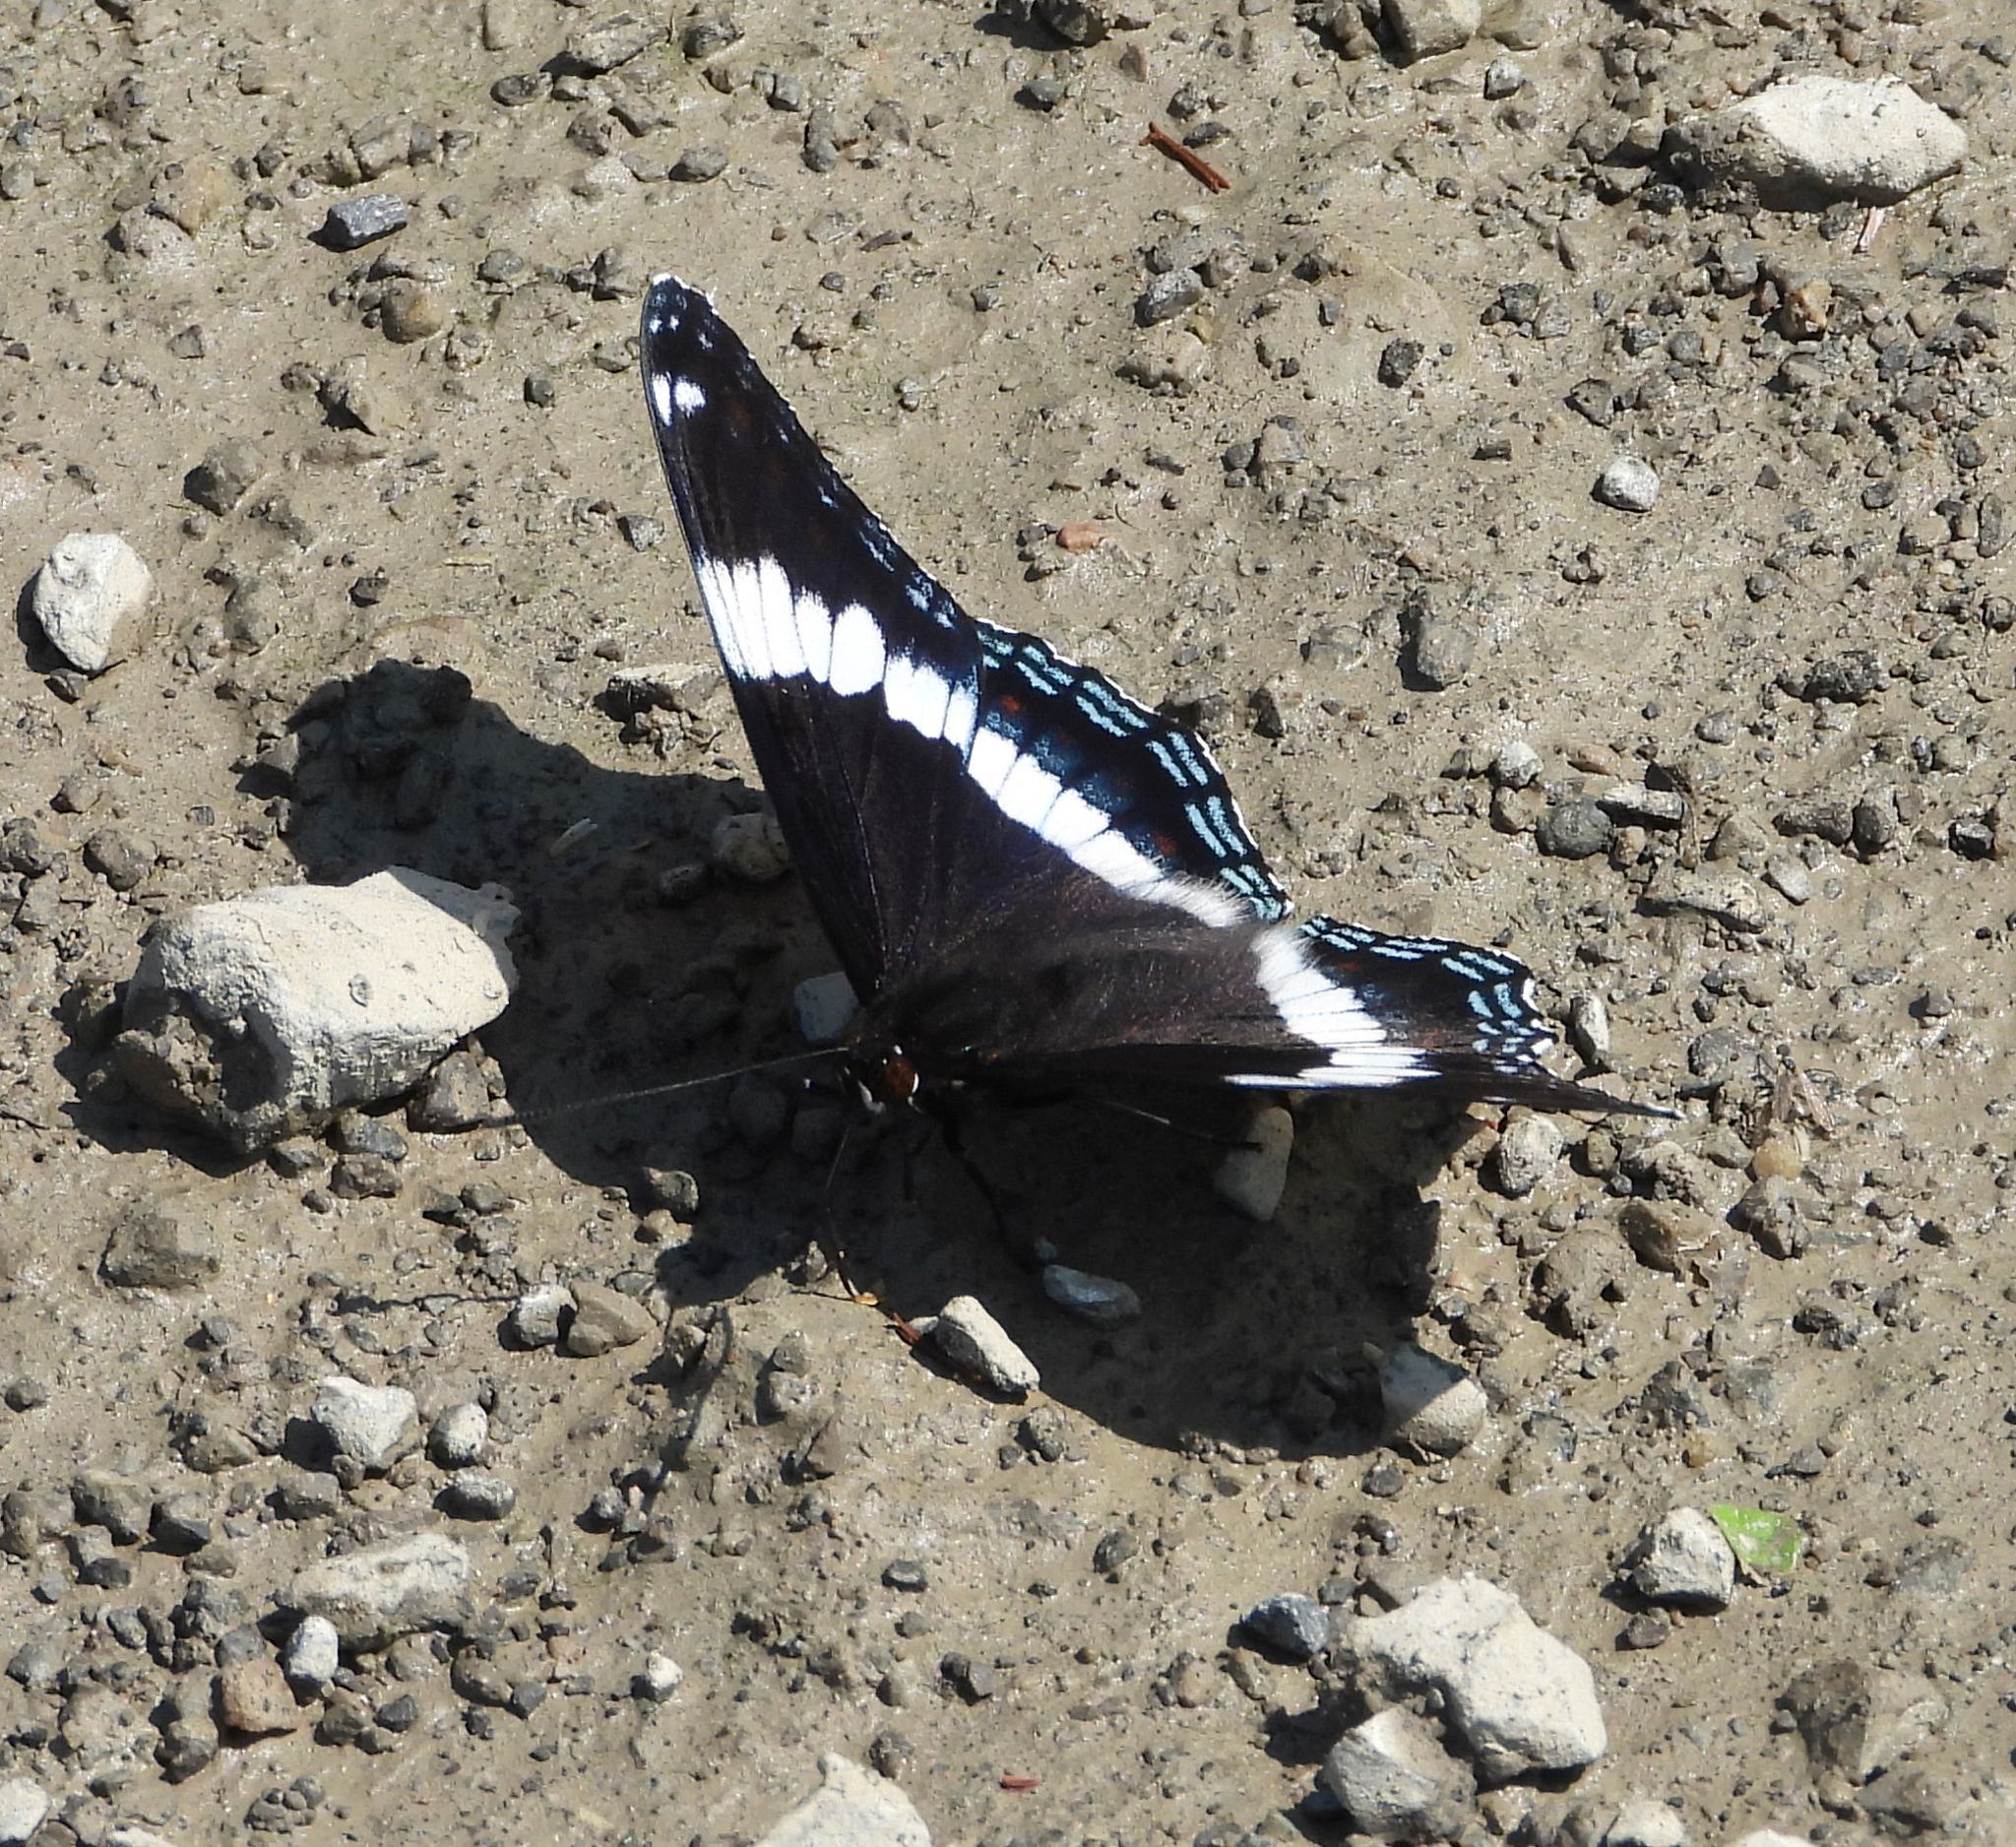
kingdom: Animalia
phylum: Arthropoda
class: Insecta
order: Lepidoptera
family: Nymphalidae
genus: Limenitis
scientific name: Limenitis arthemis
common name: Red-spotted admiral
